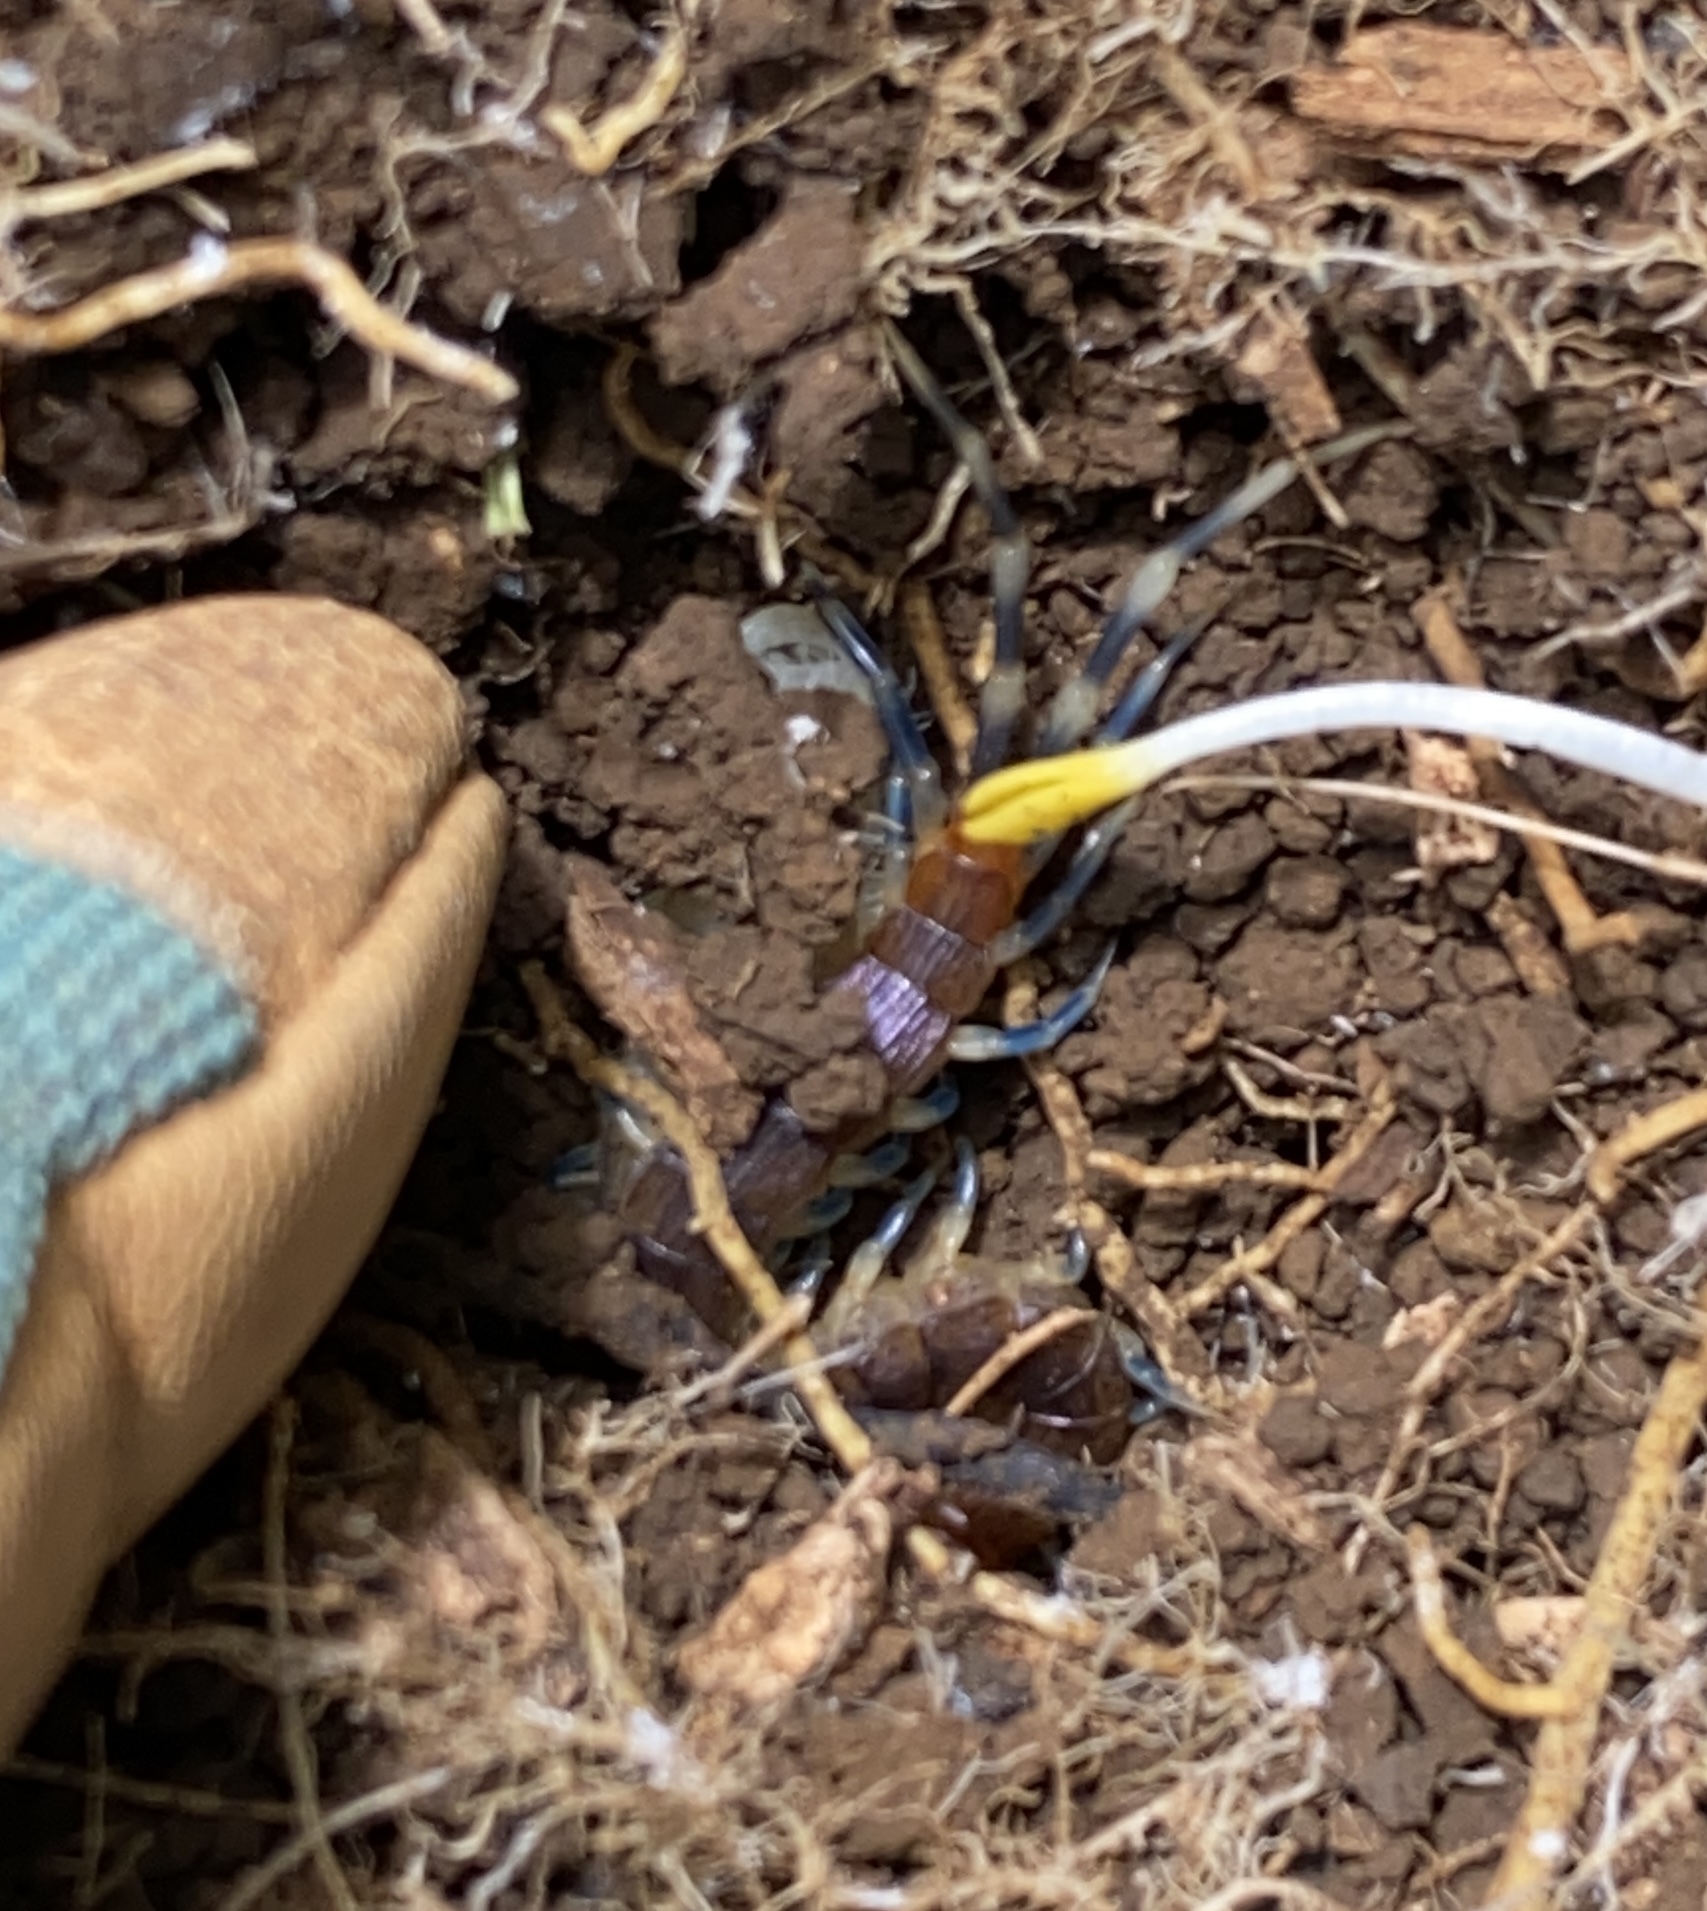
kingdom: Animalia
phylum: Arthropoda
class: Chilopoda
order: Scolopendromorpha
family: Scolopendridae
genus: Otostigmus
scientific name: Otostigmus scaber
